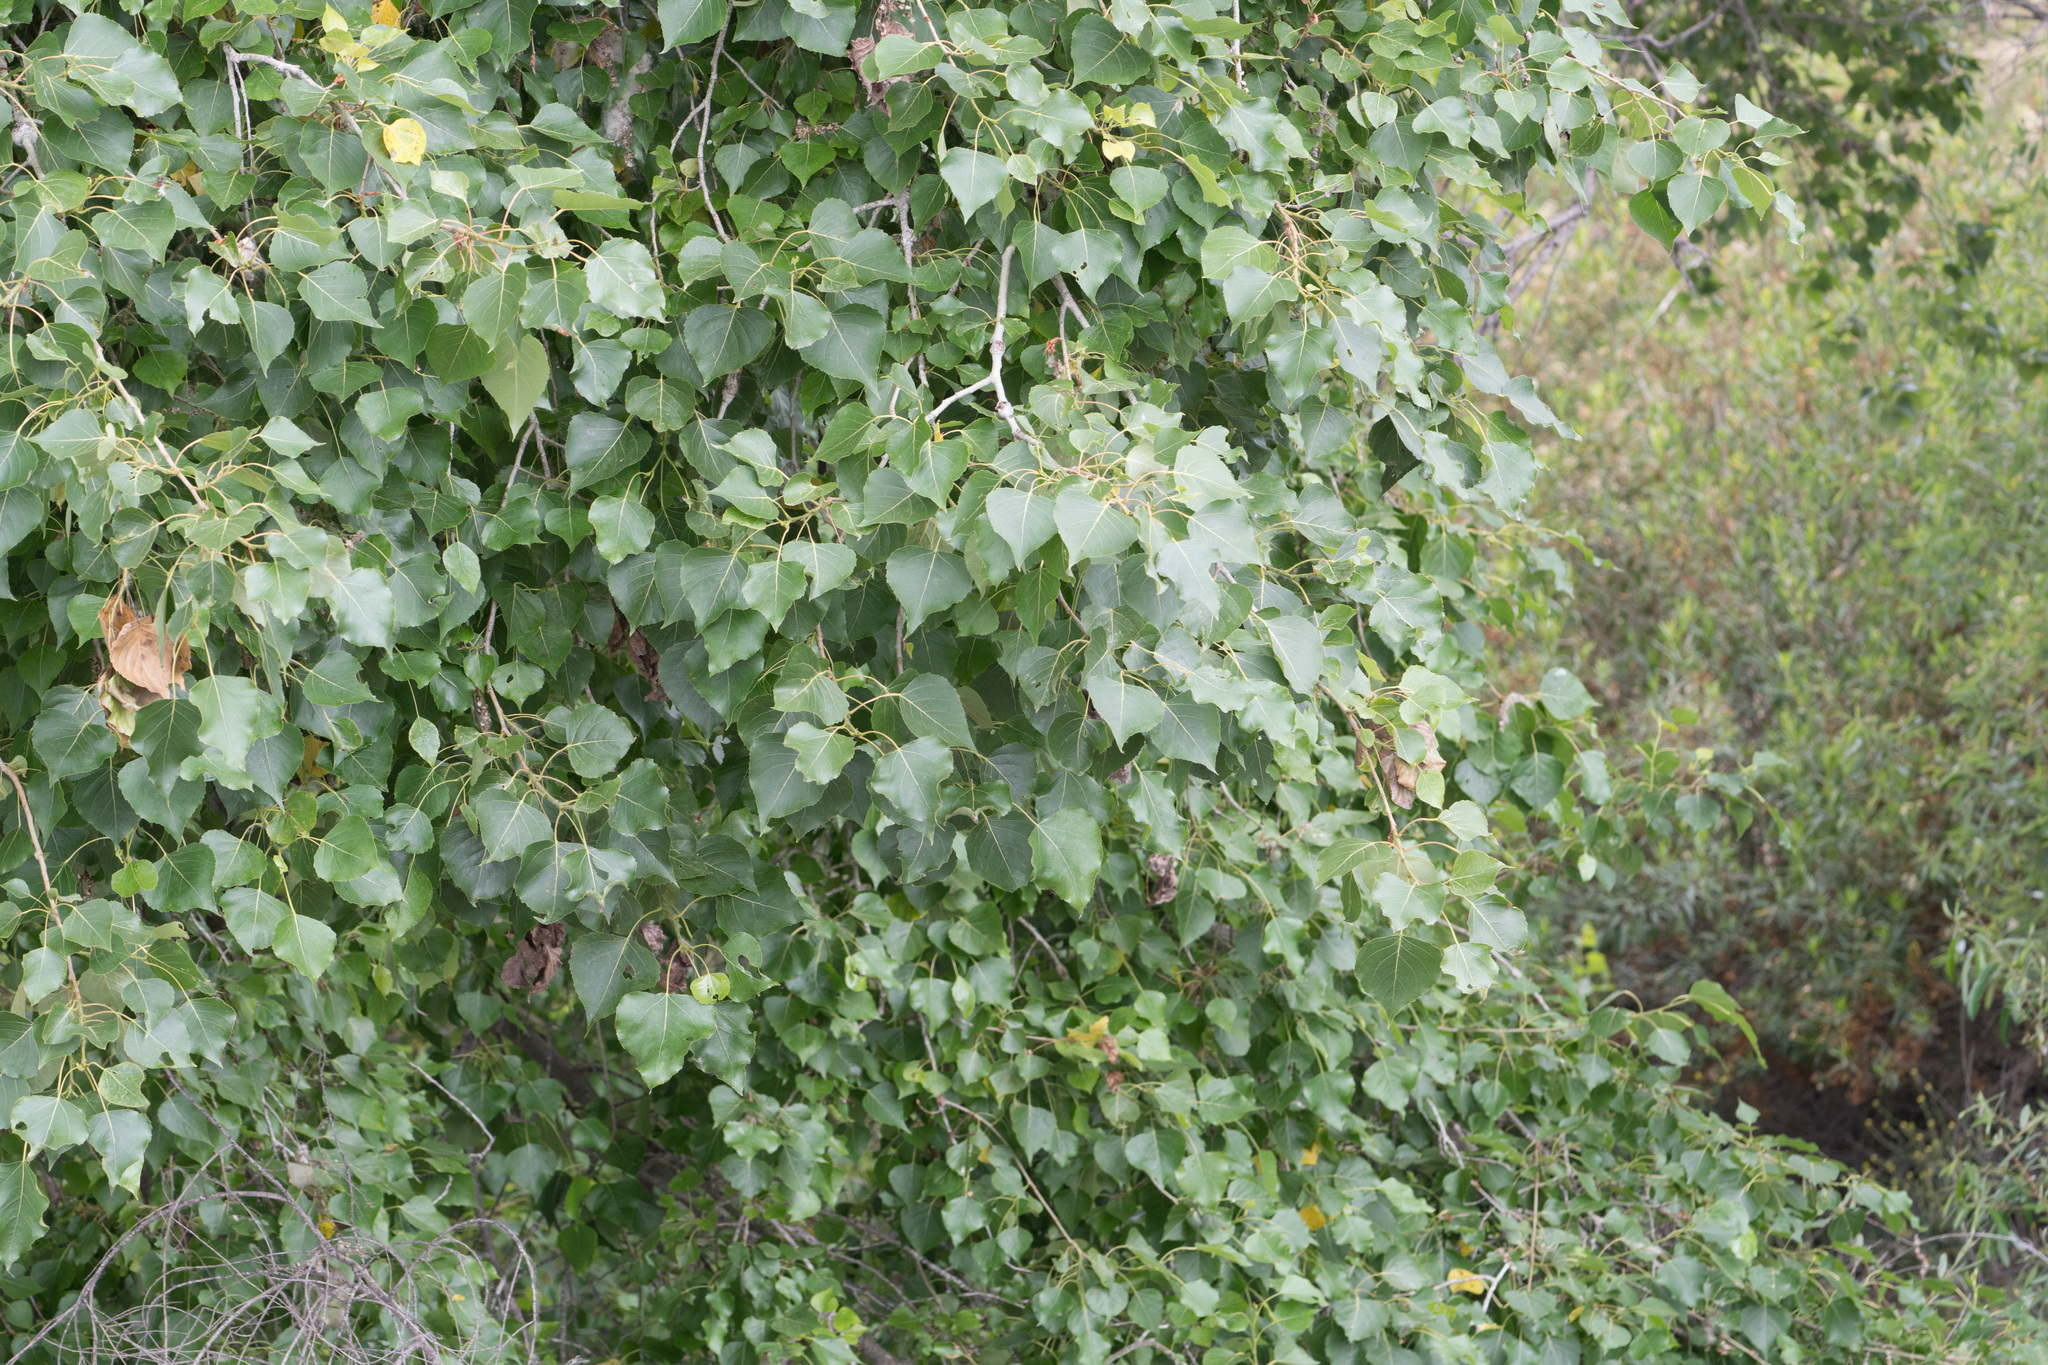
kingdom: Plantae
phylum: Tracheophyta
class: Magnoliopsida
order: Malpighiales
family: Salicaceae
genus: Populus
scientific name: Populus fremontii
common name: Fremont's cottonwood
